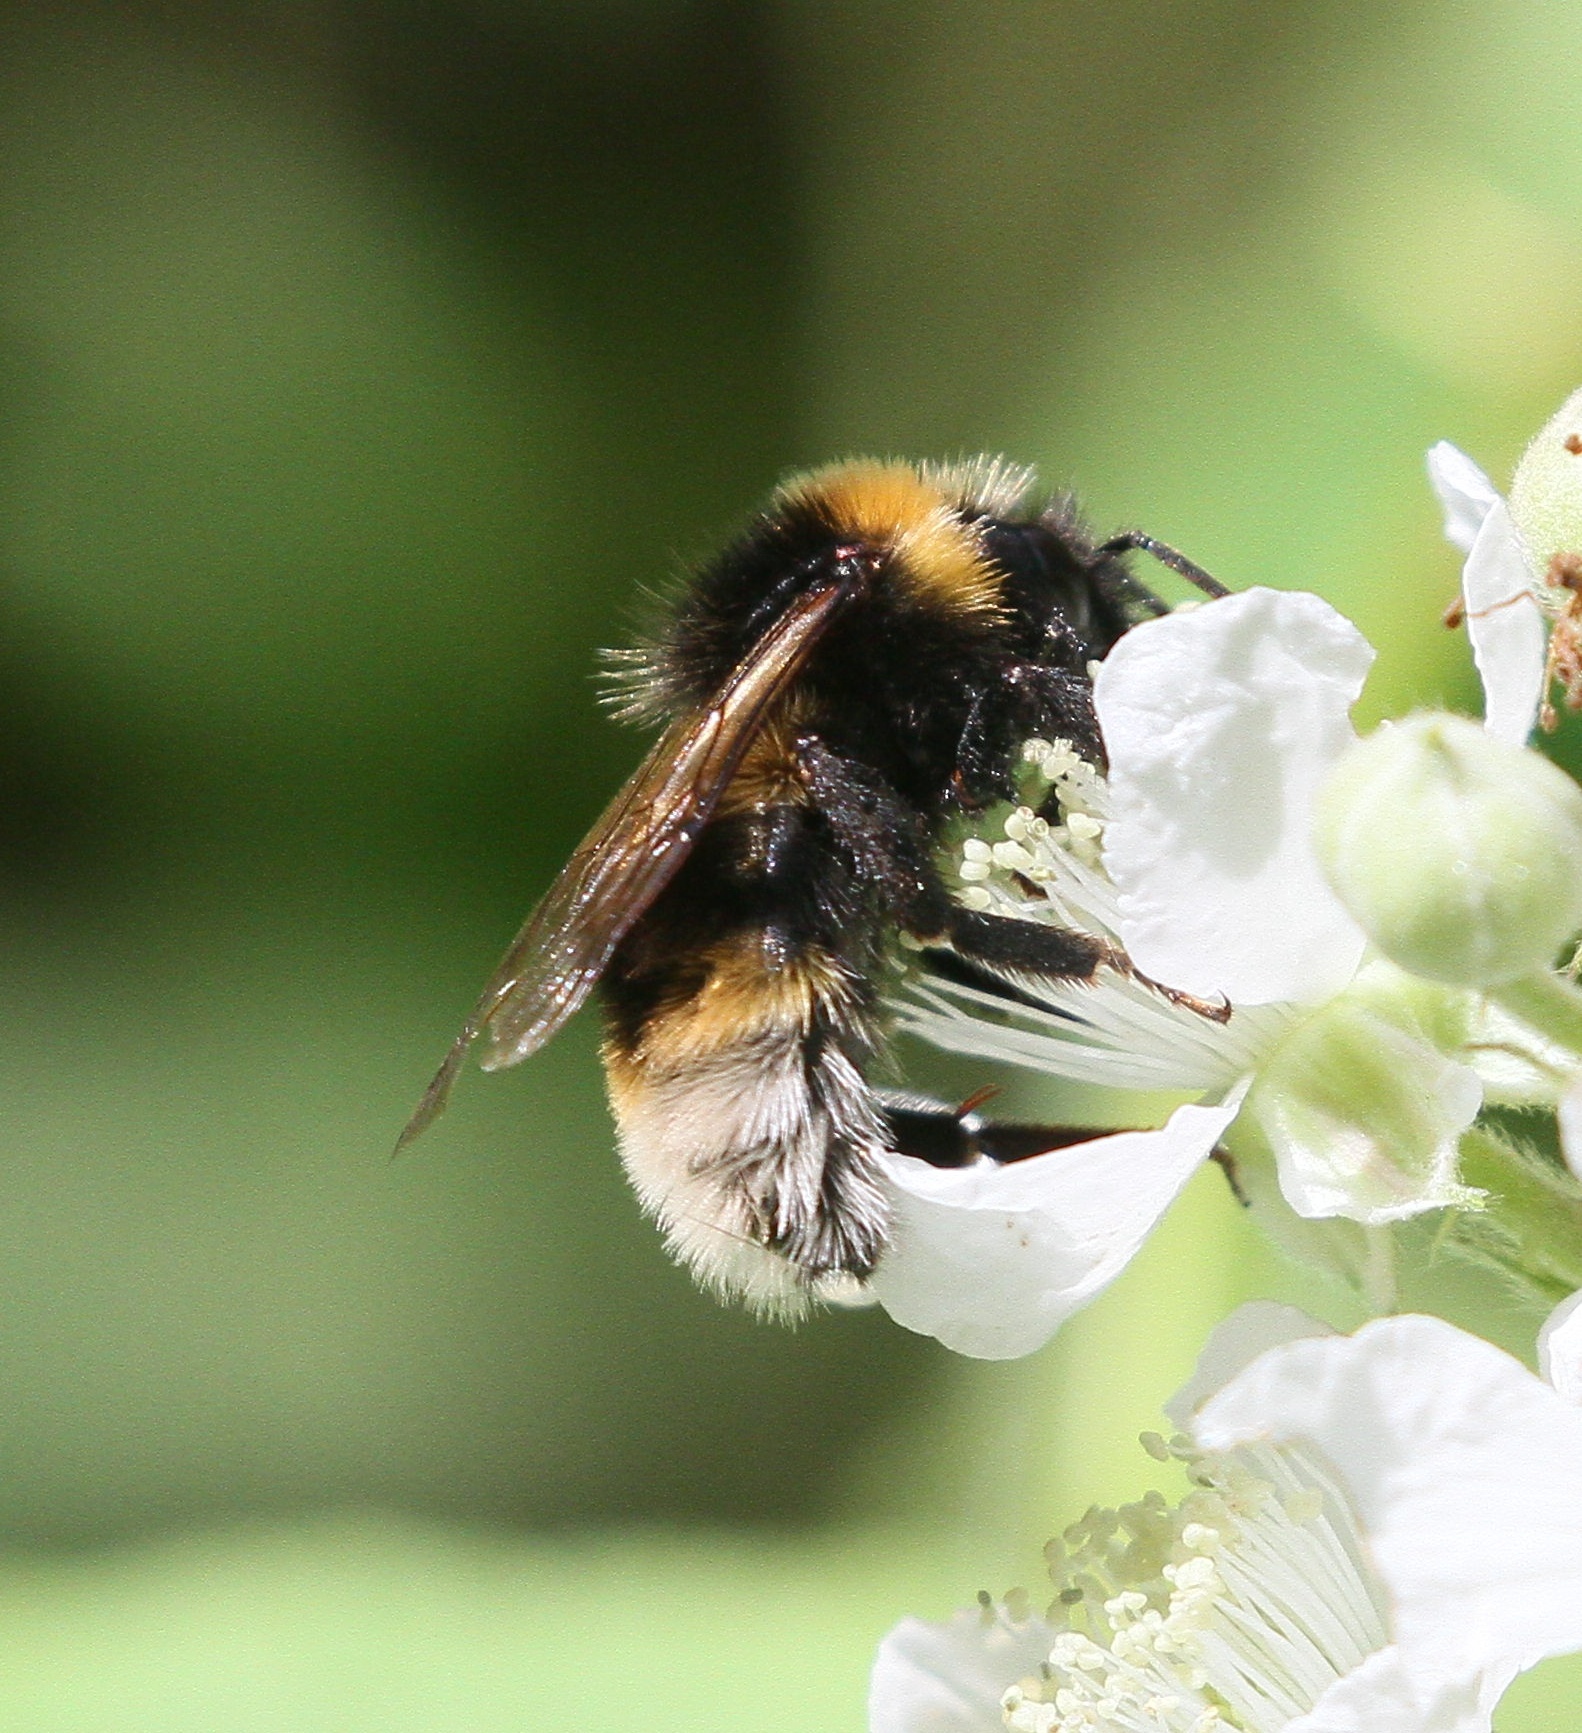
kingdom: Animalia
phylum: Arthropoda
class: Insecta
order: Hymenoptera
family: Apidae
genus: Bombus
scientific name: Bombus vestalis
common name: Vestal cuckoo bee
